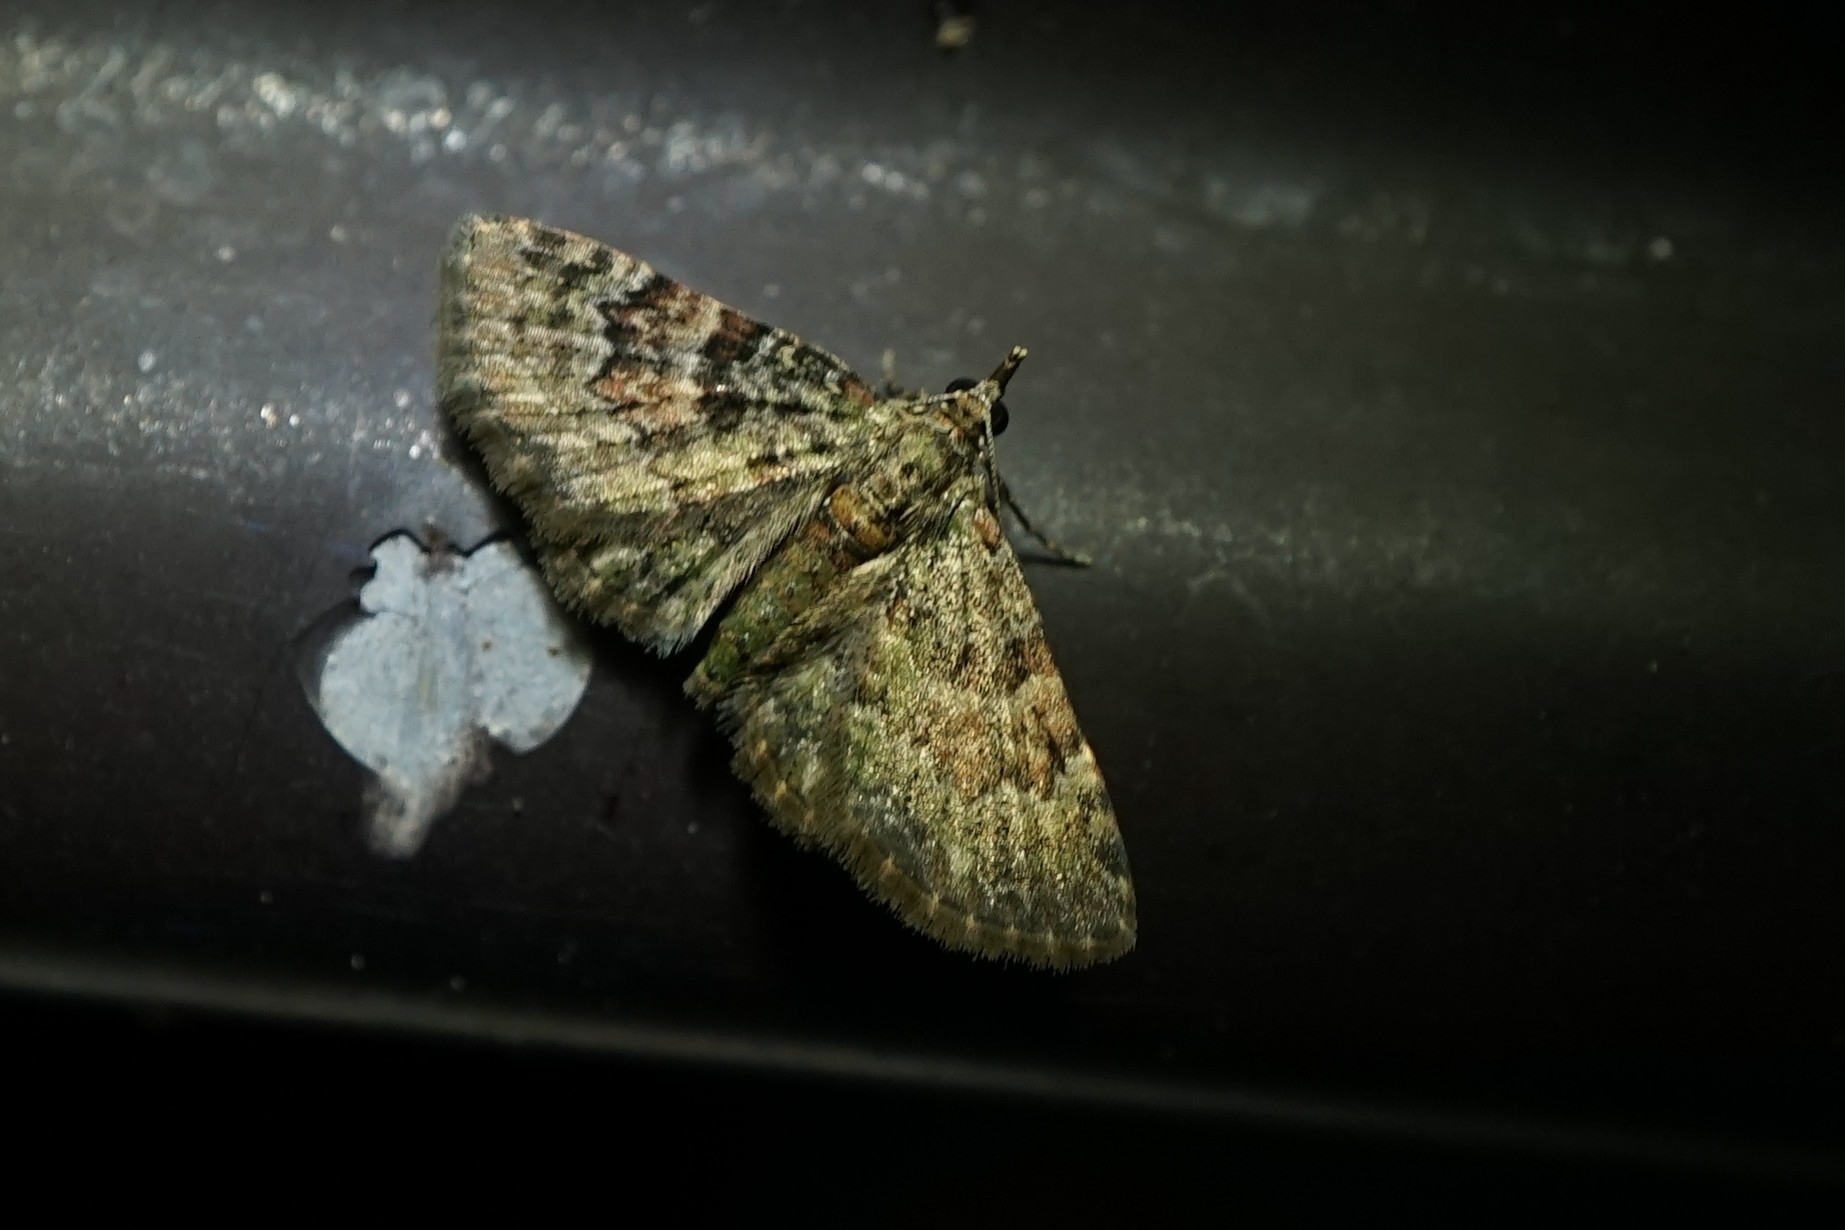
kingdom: Animalia
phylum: Arthropoda
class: Insecta
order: Lepidoptera
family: Geometridae
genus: Gymnoscelis
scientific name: Gymnoscelis esakii
